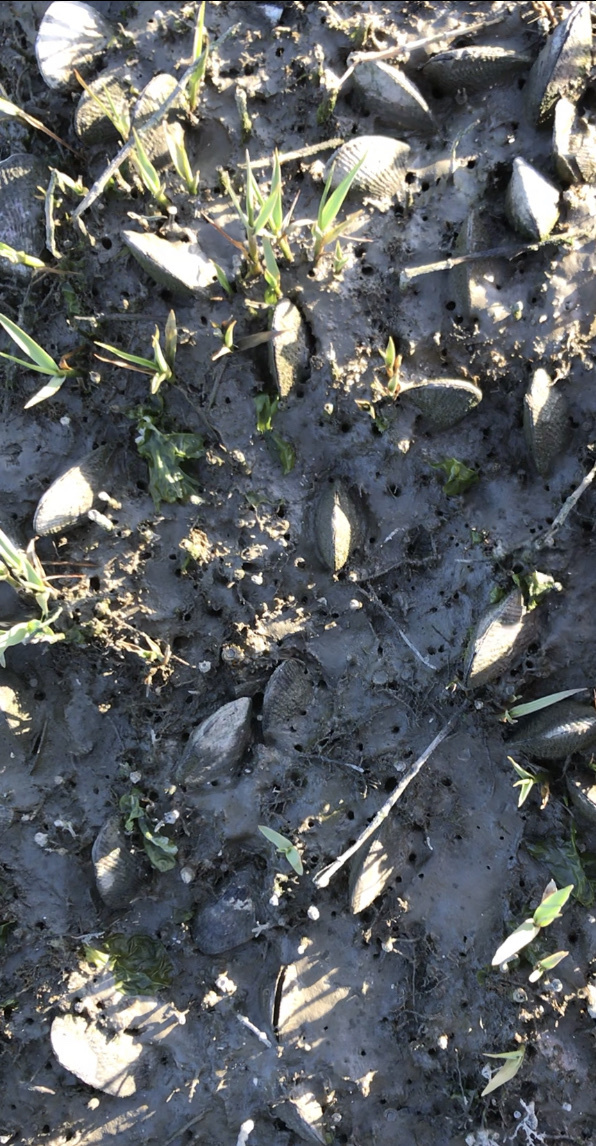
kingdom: Animalia
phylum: Mollusca
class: Bivalvia
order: Mytilida
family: Mytilidae
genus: Geukensia
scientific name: Geukensia demissa
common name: Ribbed mussel
